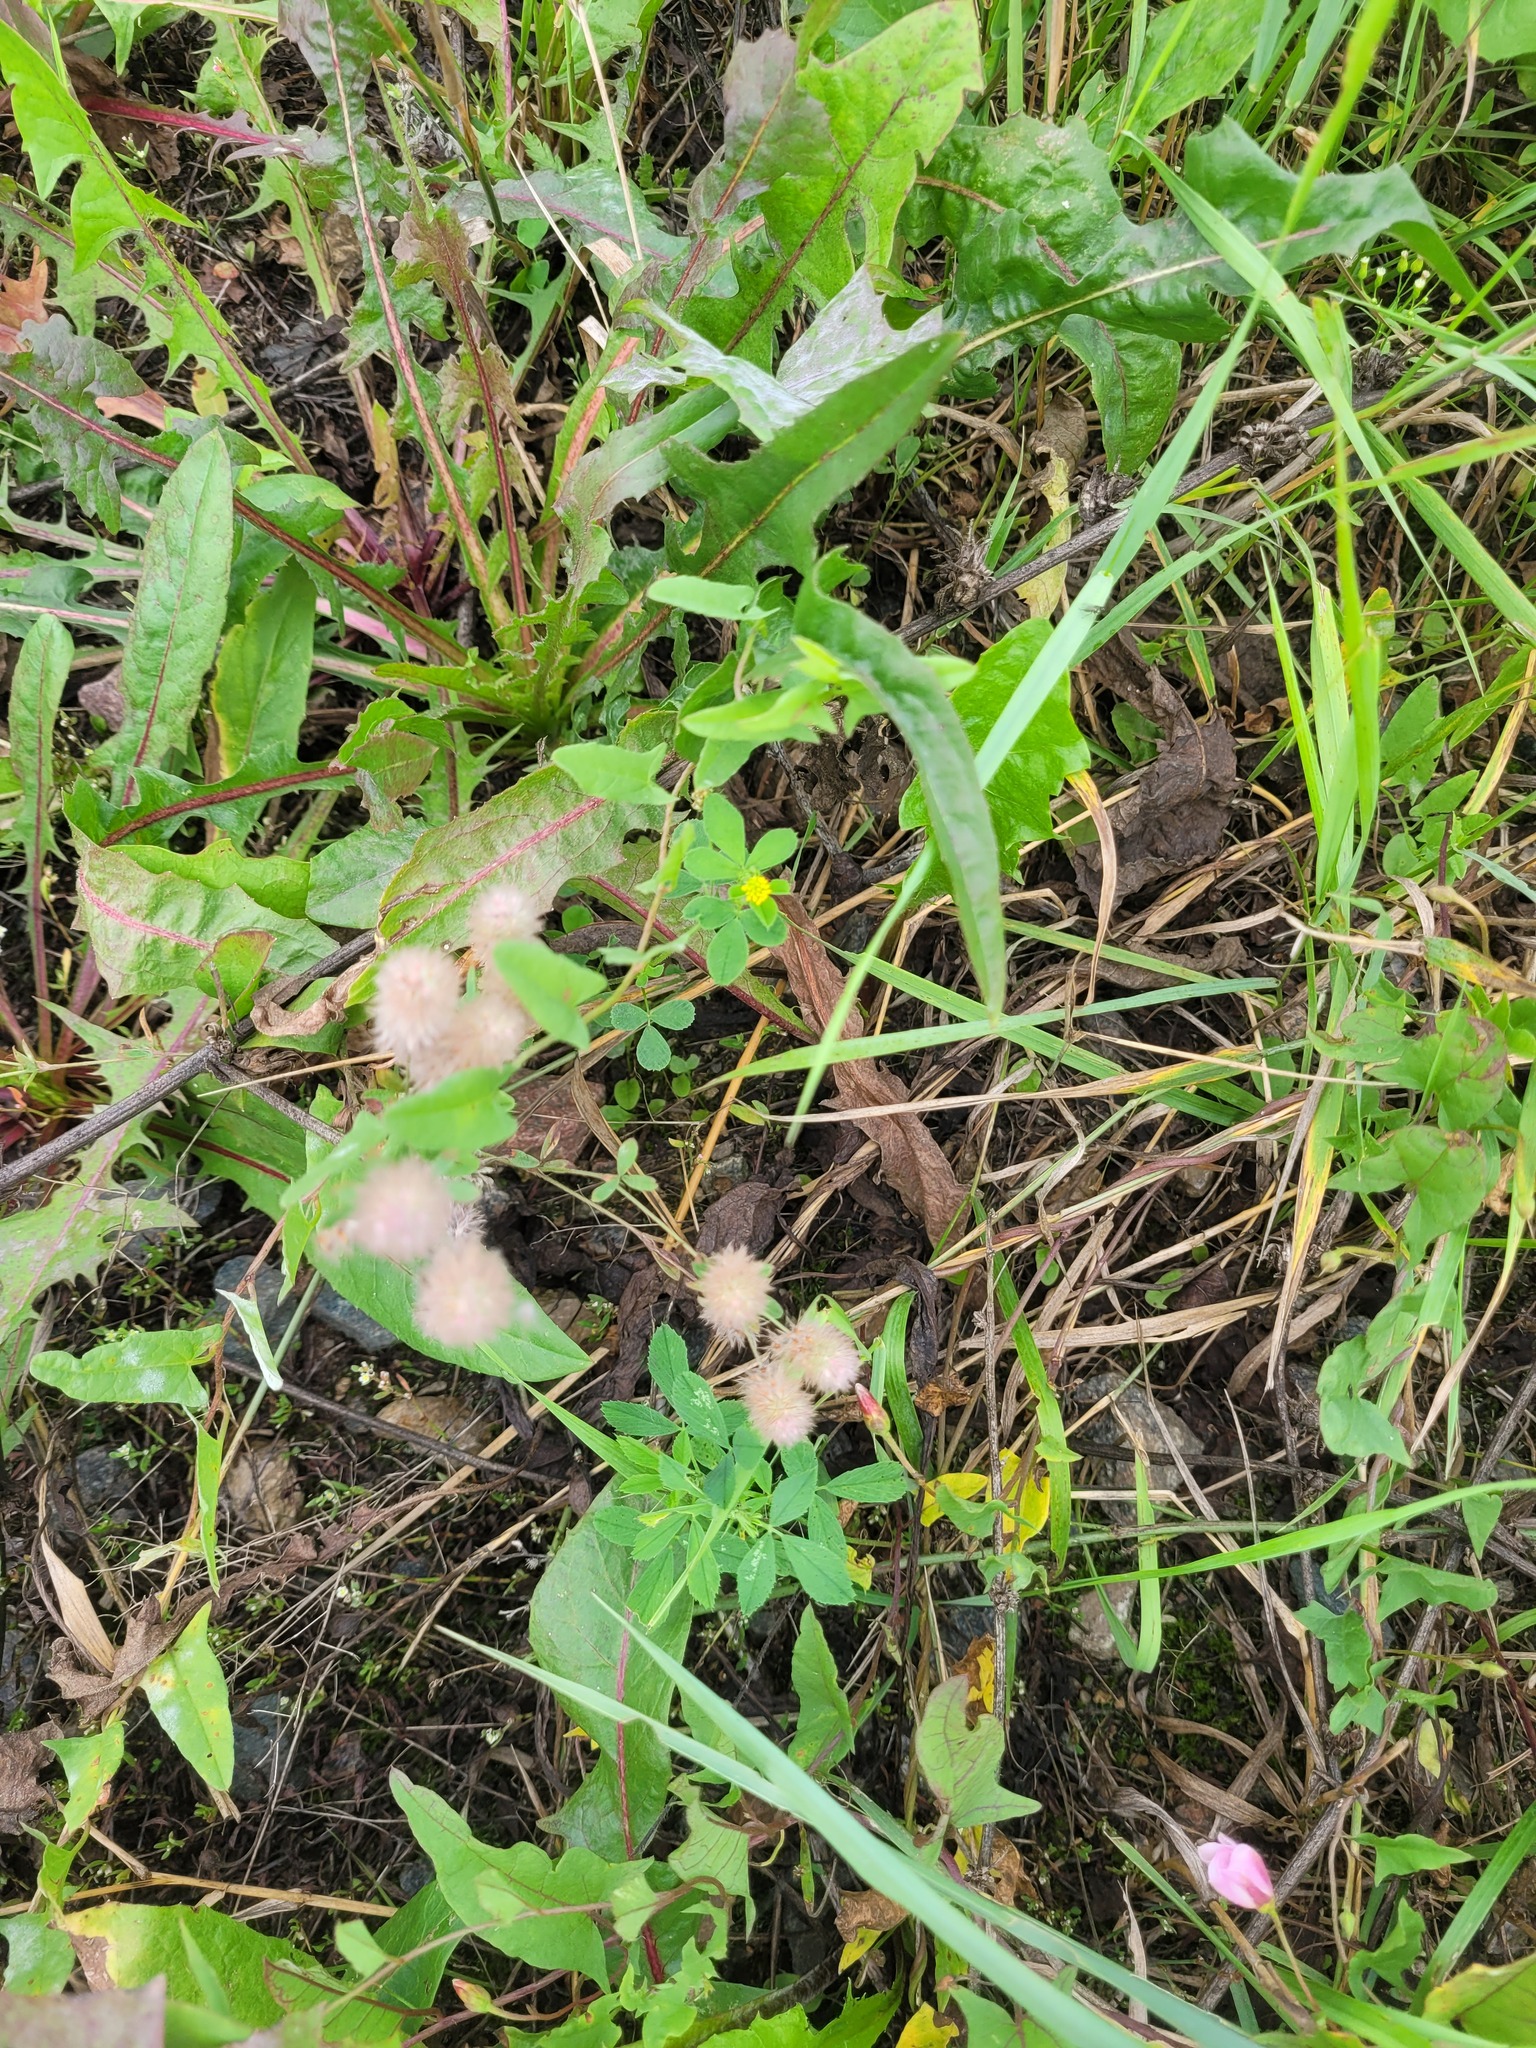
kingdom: Plantae
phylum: Tracheophyta
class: Magnoliopsida
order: Fabales
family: Fabaceae
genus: Medicago
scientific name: Medicago lupulina
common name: Black medick
